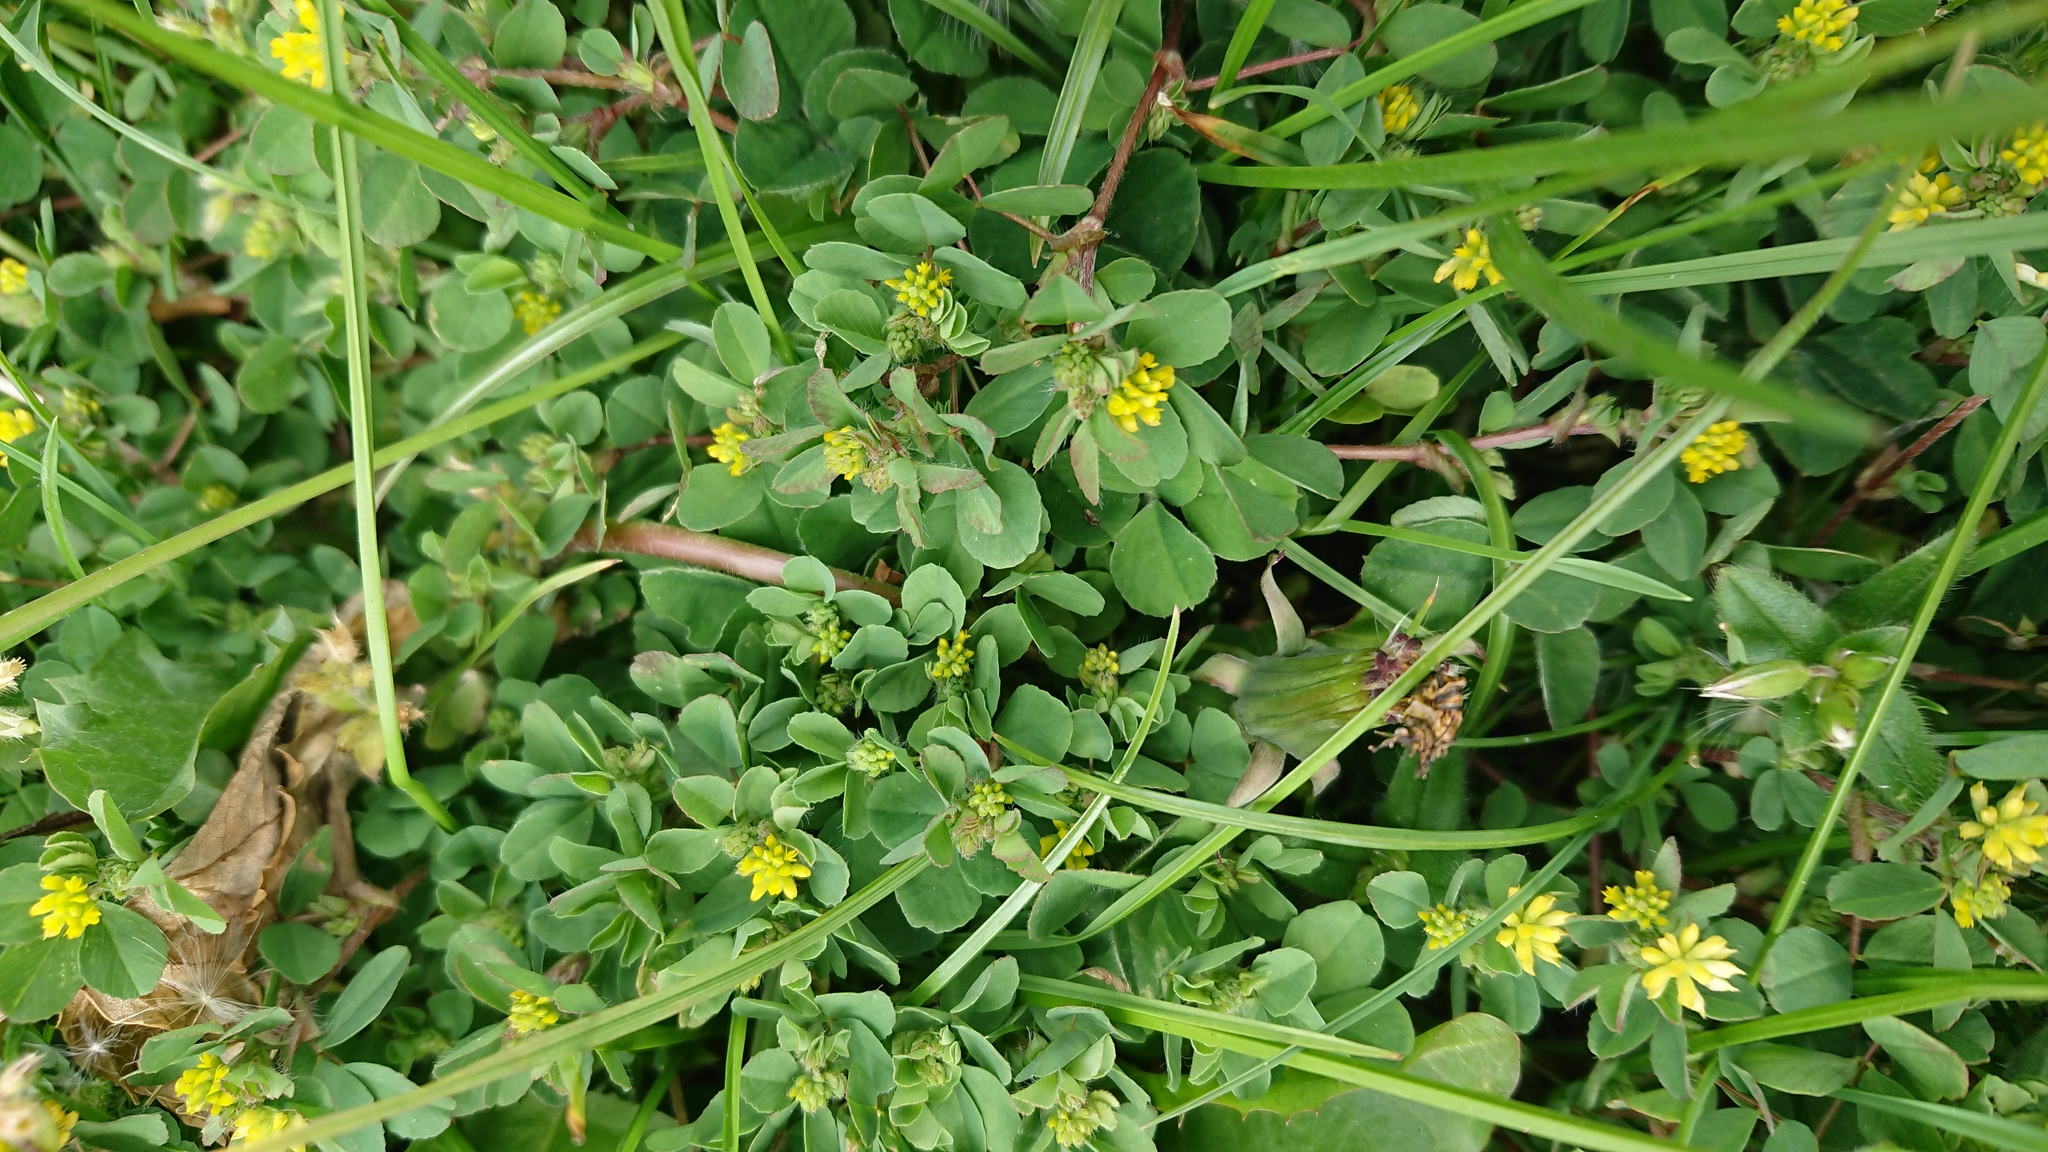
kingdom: Plantae
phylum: Tracheophyta
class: Magnoliopsida
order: Fabales
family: Fabaceae
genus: Trifolium
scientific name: Trifolium dubium
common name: Suckling clover
